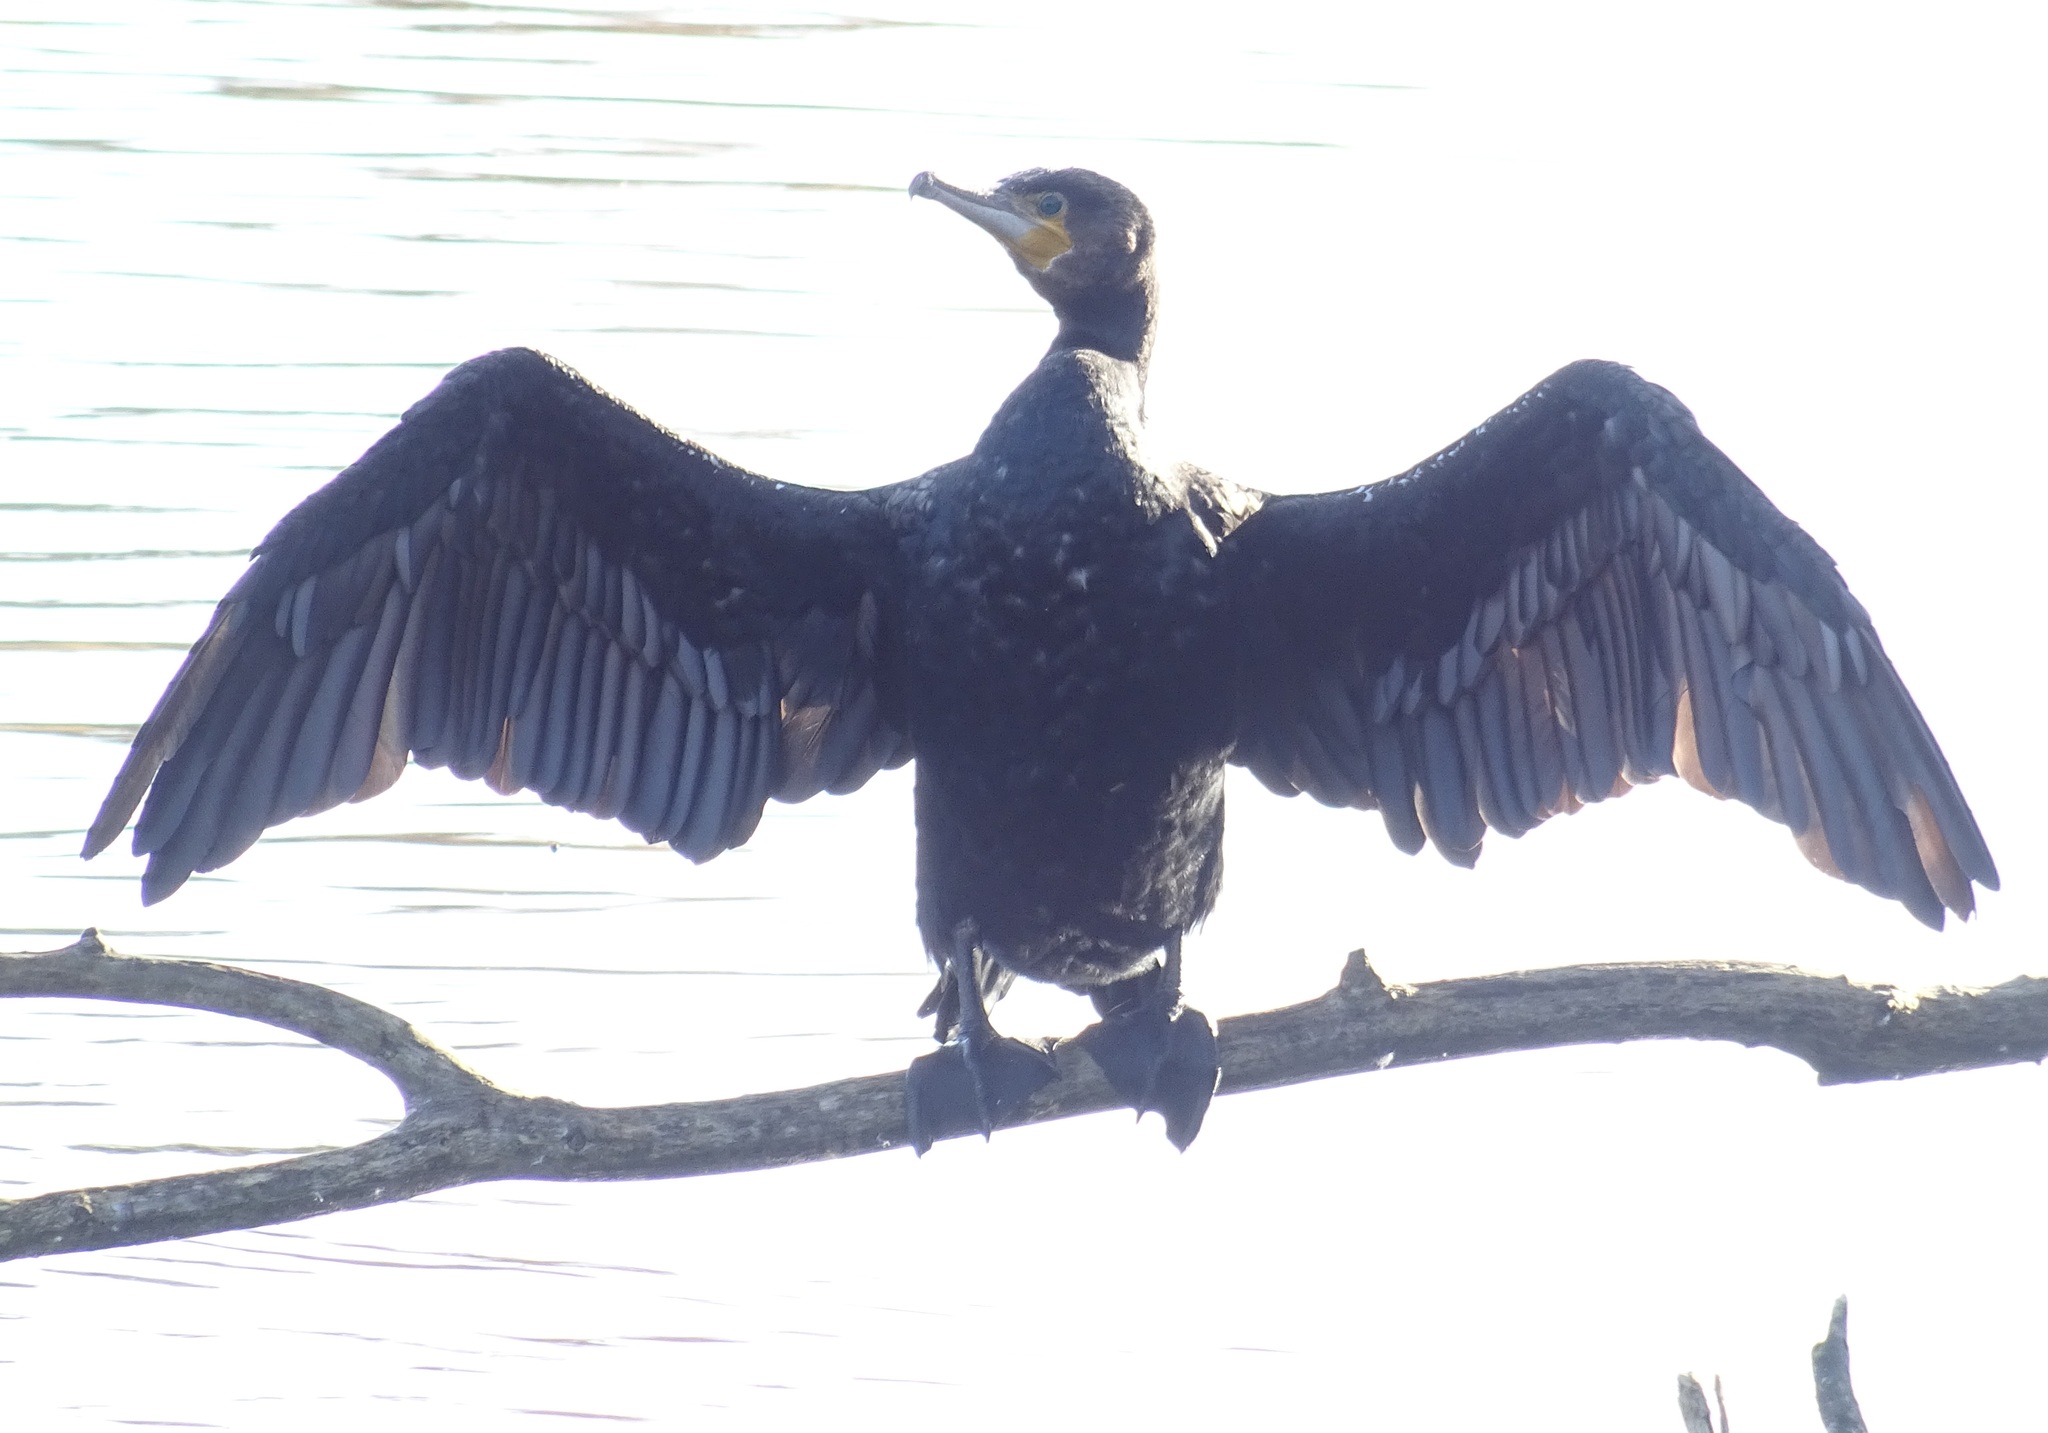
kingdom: Animalia
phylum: Chordata
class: Aves
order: Suliformes
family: Phalacrocoracidae
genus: Phalacrocorax
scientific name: Phalacrocorax carbo
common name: Great cormorant
